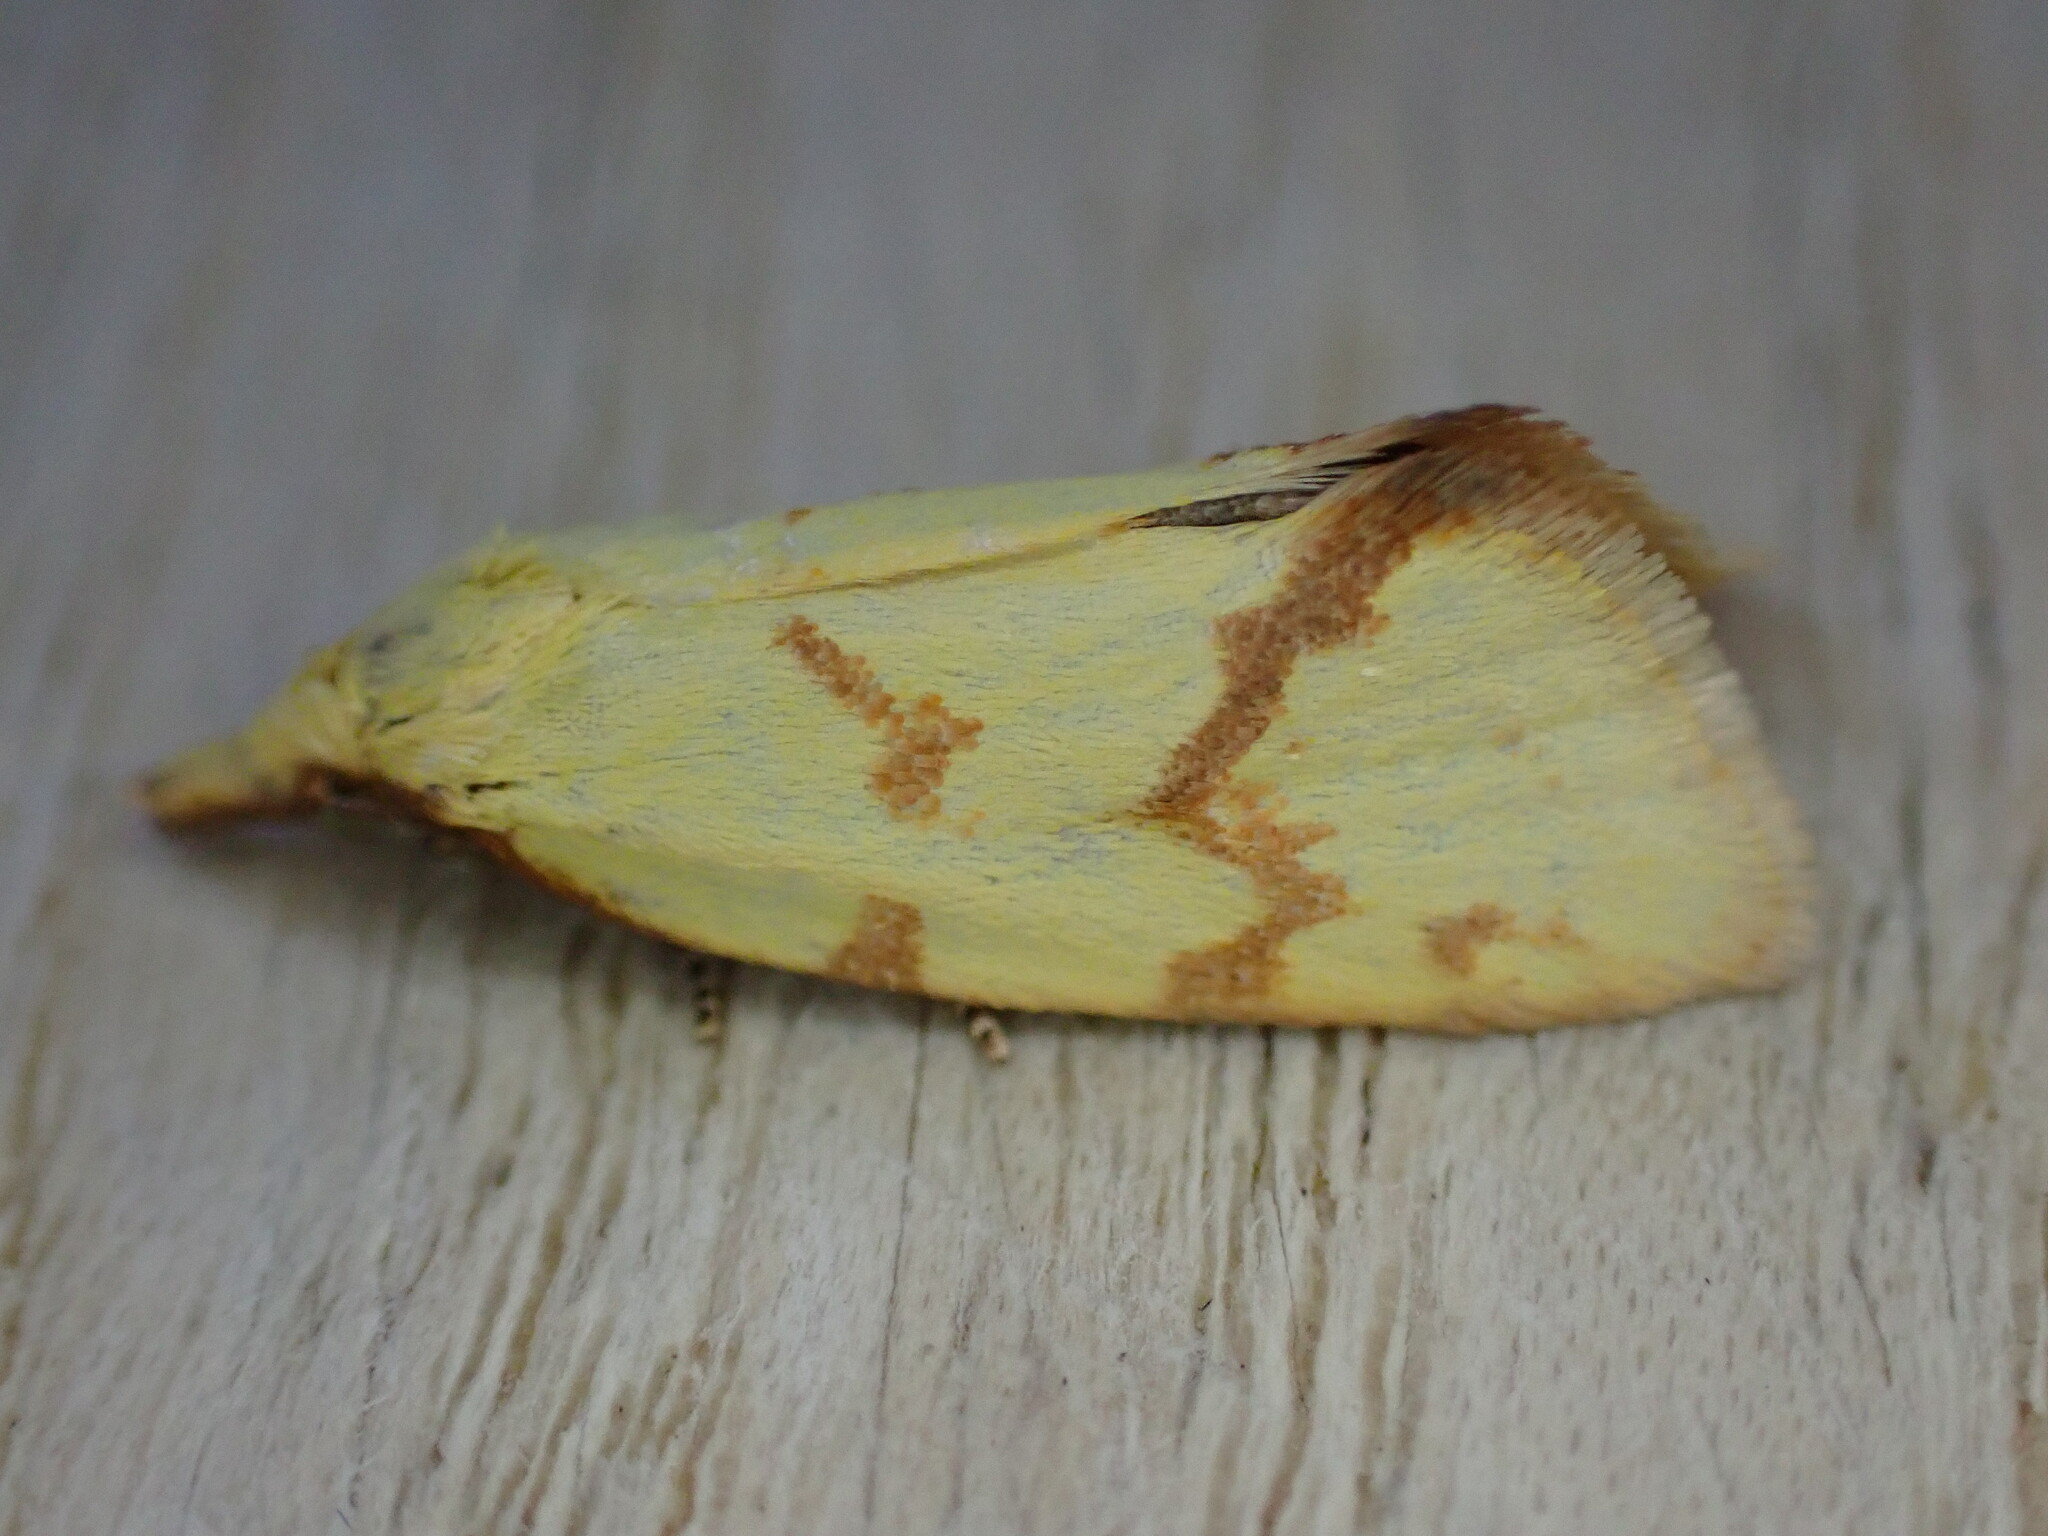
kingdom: Animalia
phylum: Arthropoda
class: Insecta
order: Lepidoptera
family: Tortricidae
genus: Agapeta
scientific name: Agapeta hamana
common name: Common yellow conch
